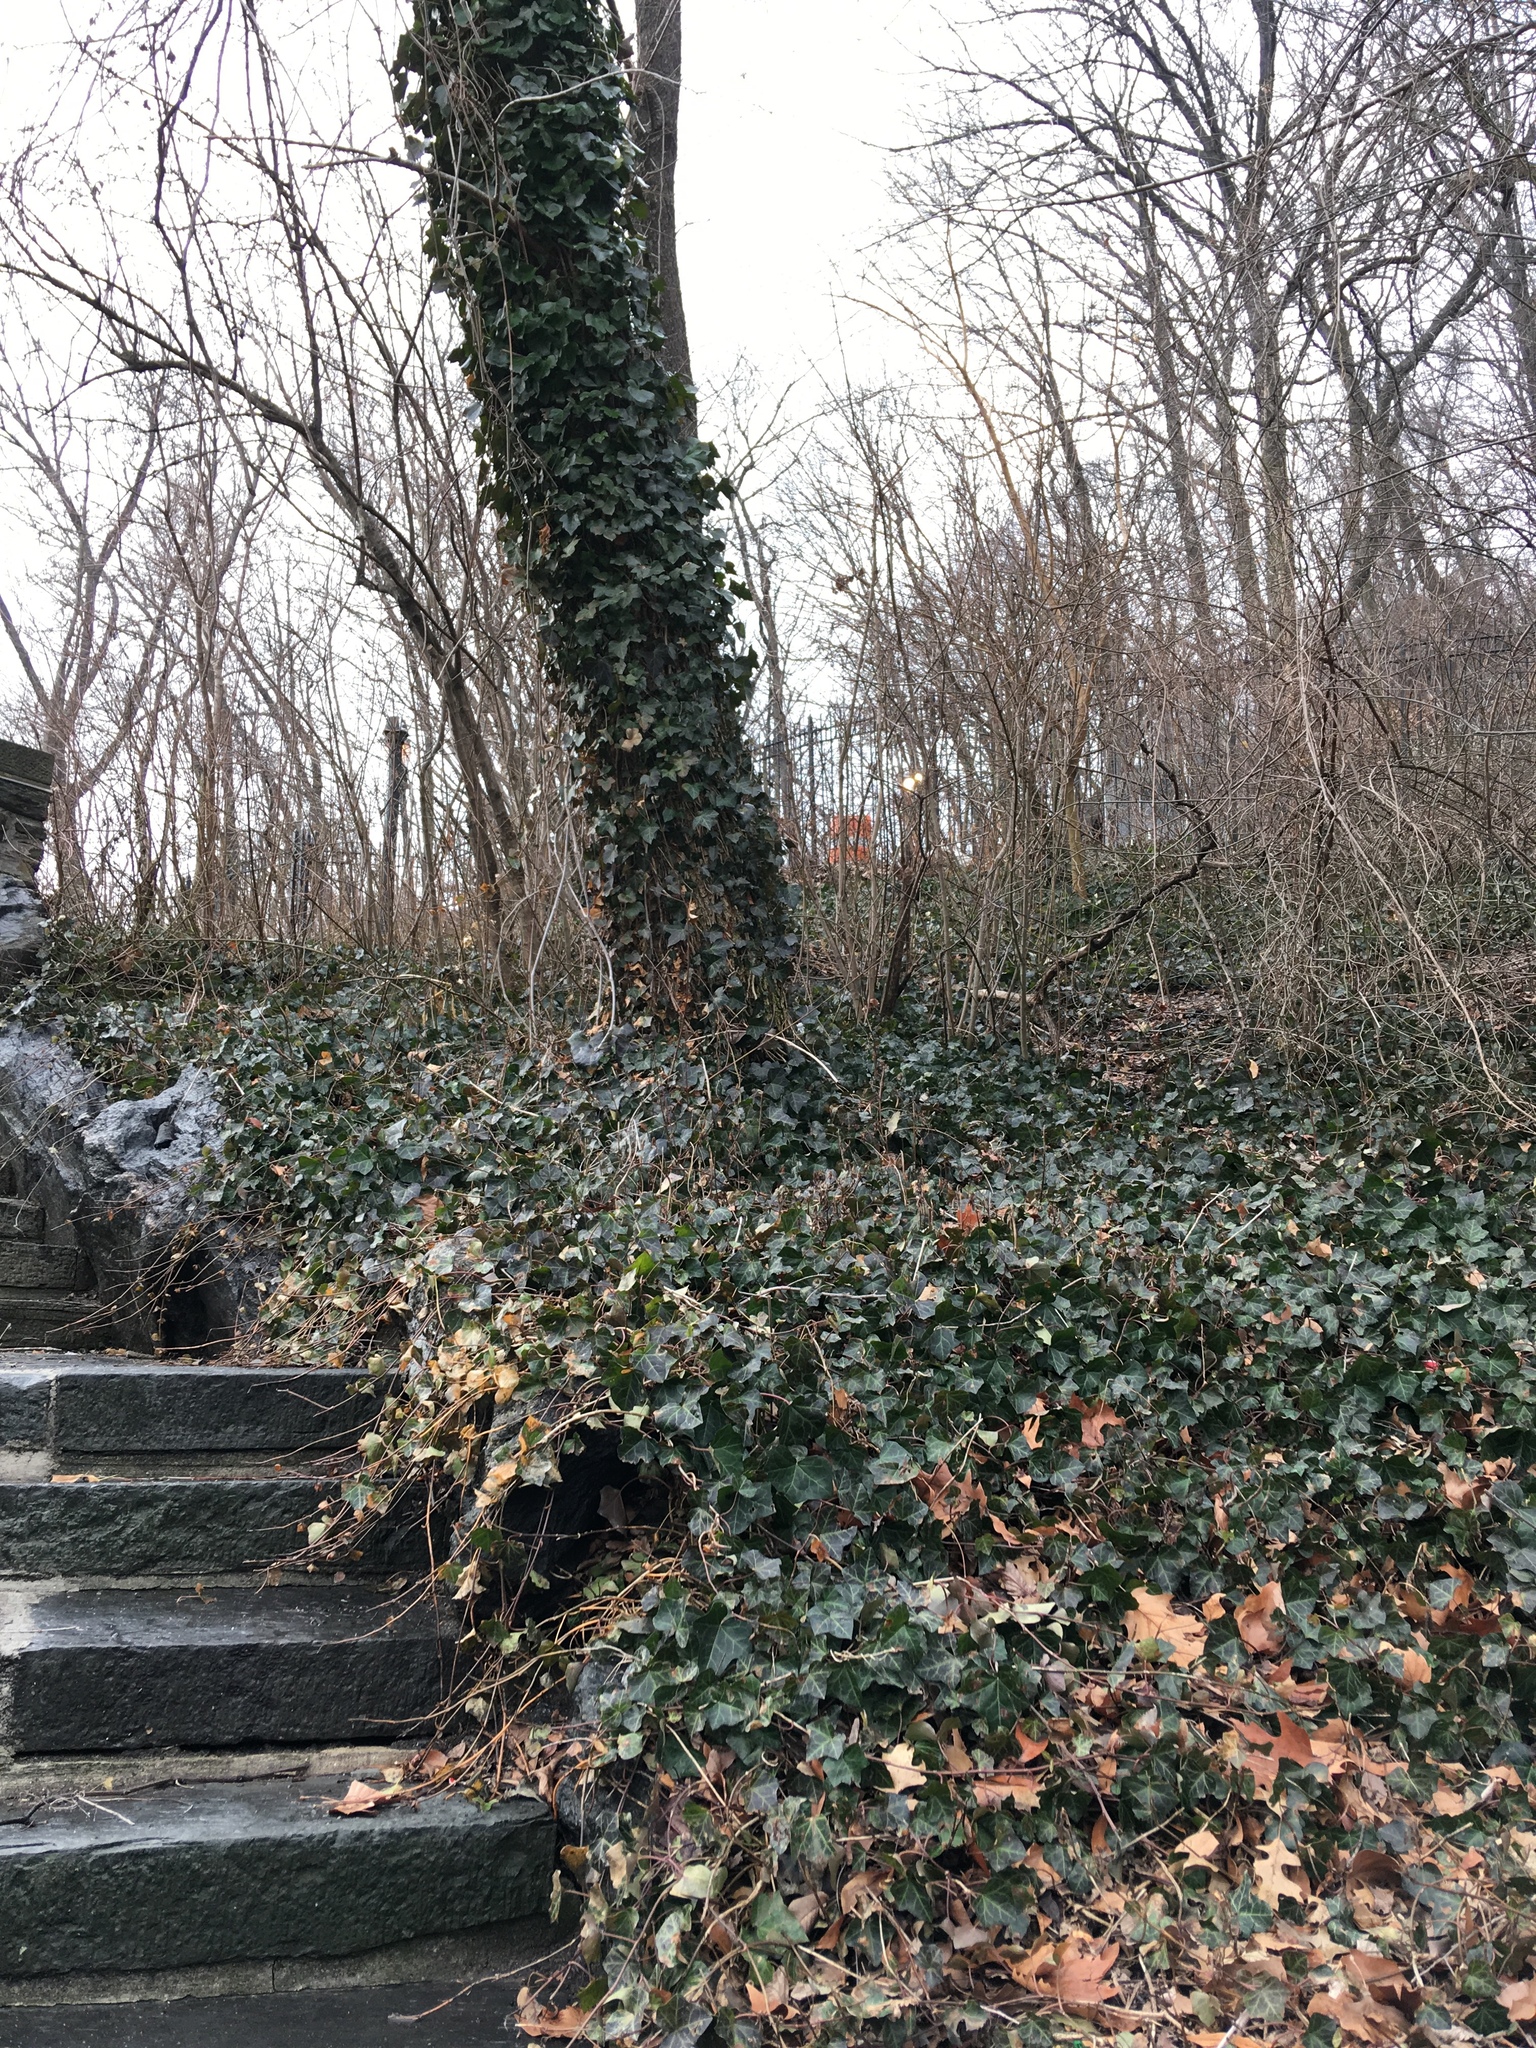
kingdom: Plantae
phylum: Tracheophyta
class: Magnoliopsida
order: Apiales
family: Araliaceae
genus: Hedera
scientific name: Hedera helix
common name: Ivy
